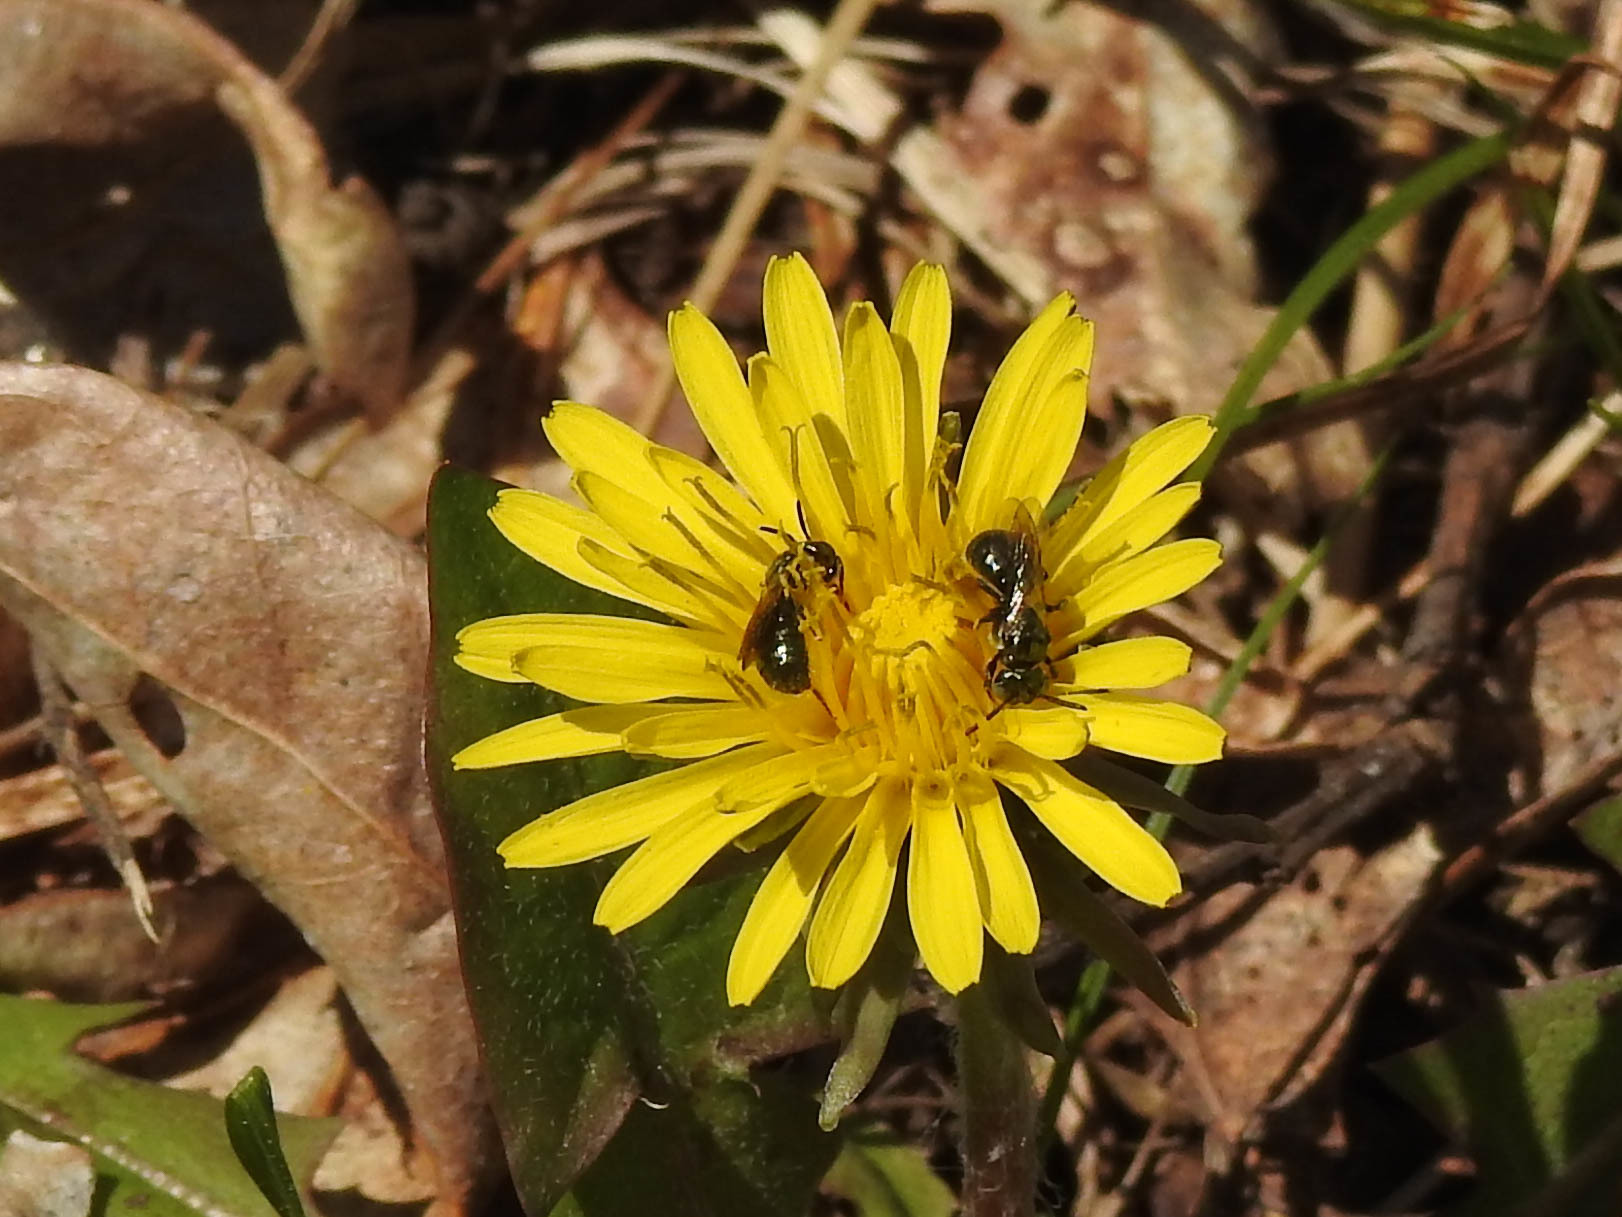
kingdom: Animalia
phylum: Arthropoda
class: Insecta
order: Hymenoptera
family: Apidae
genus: Zadontomerus
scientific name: Zadontomerus
